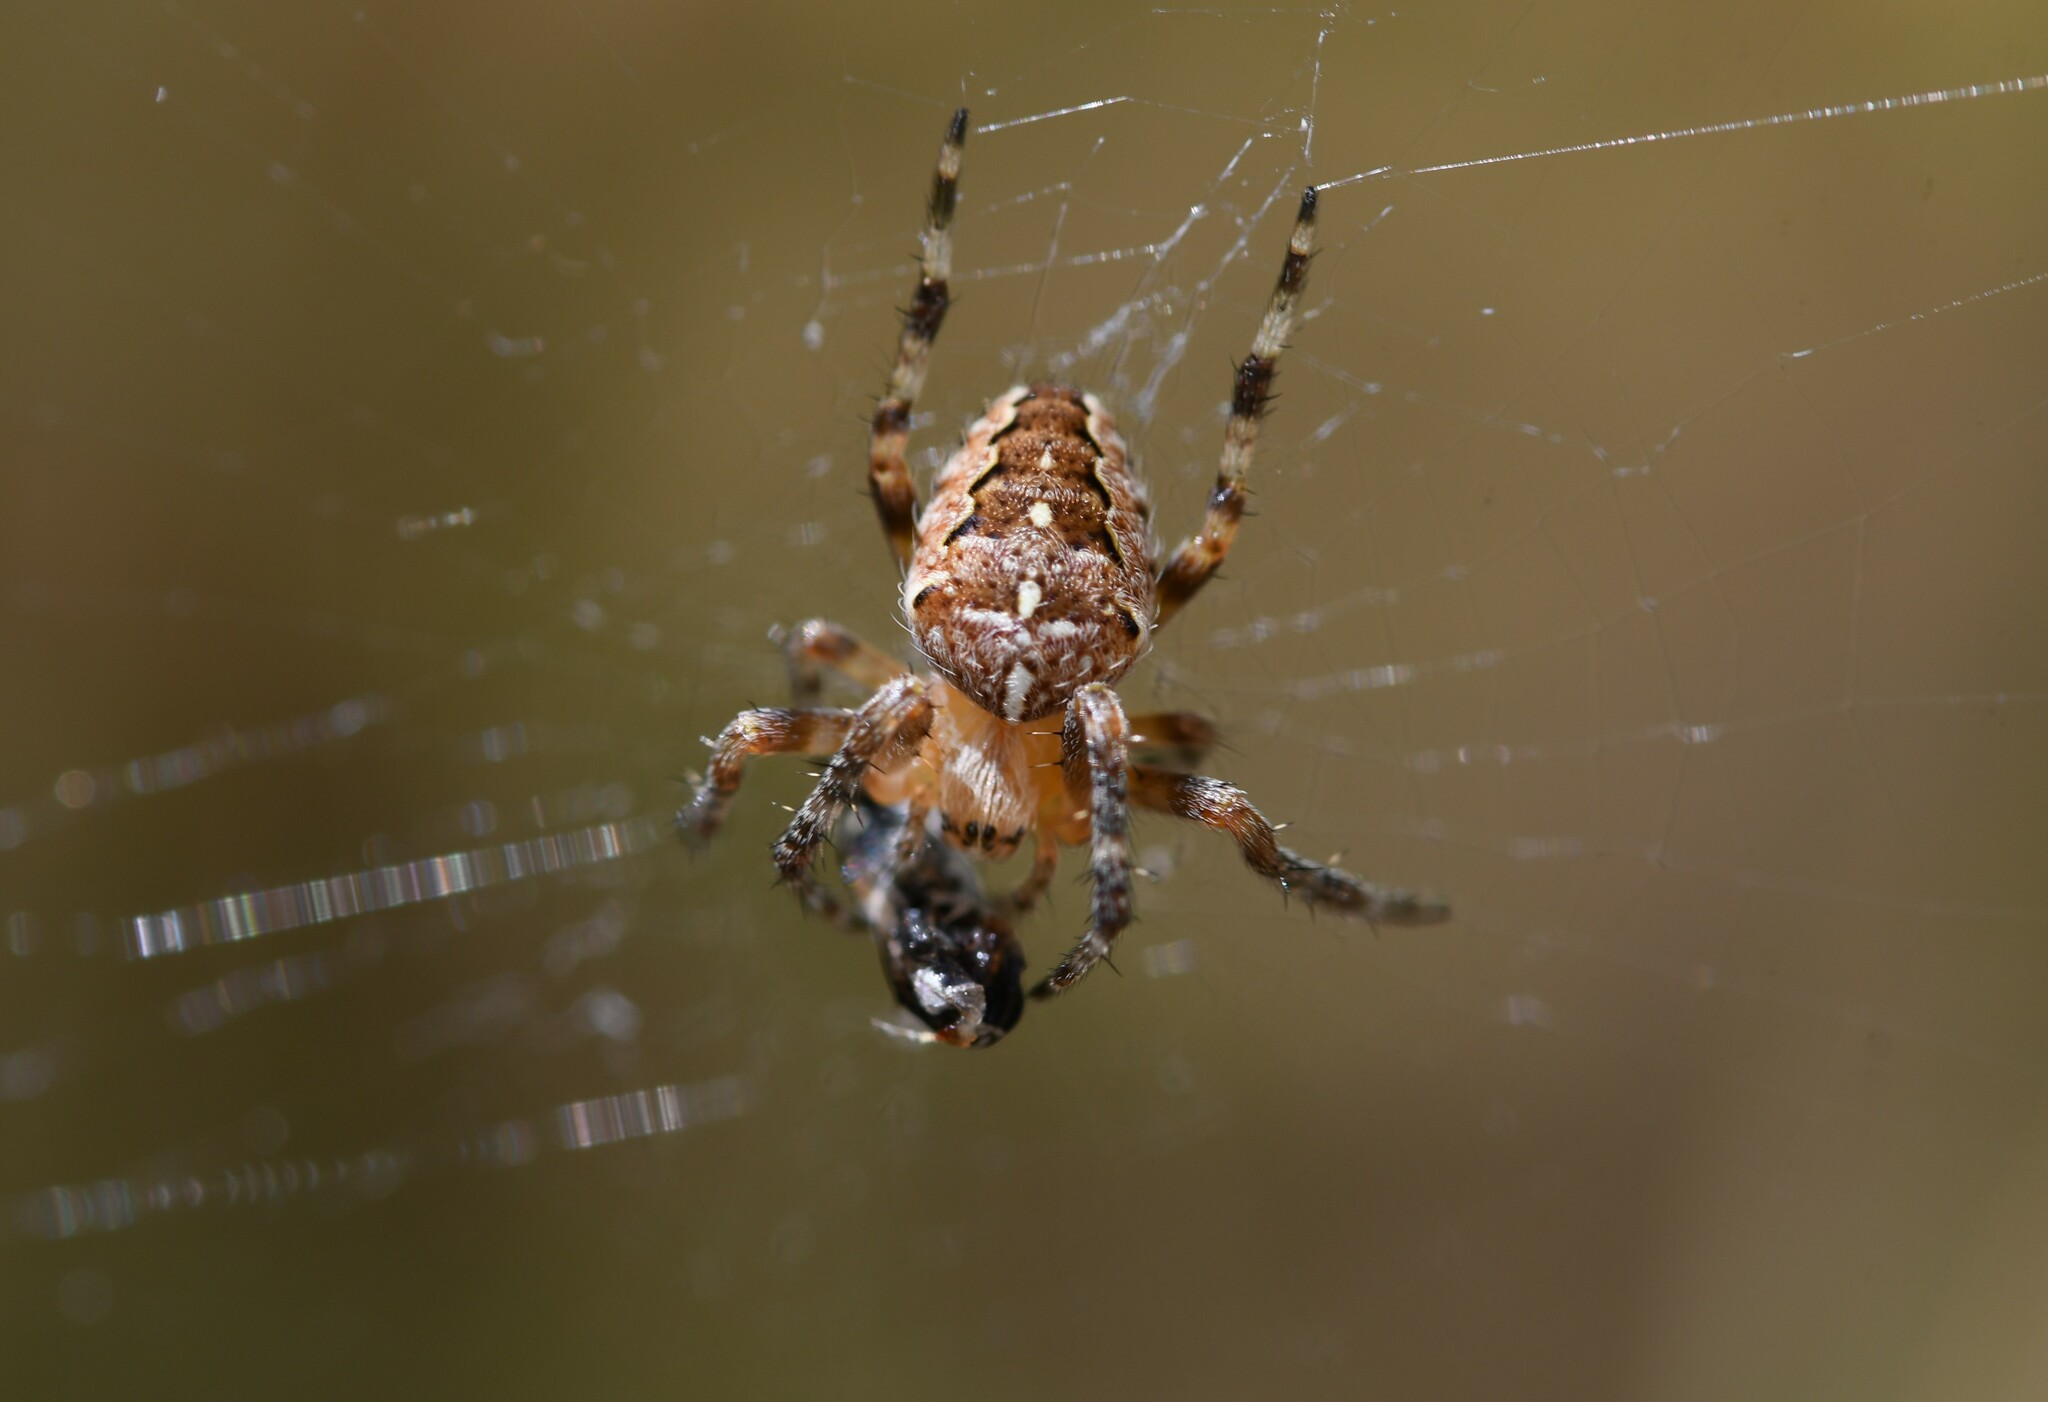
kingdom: Animalia
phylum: Arthropoda
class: Arachnida
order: Araneae
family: Araneidae
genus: Araneus
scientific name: Araneus diadematus
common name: Cross orbweaver
